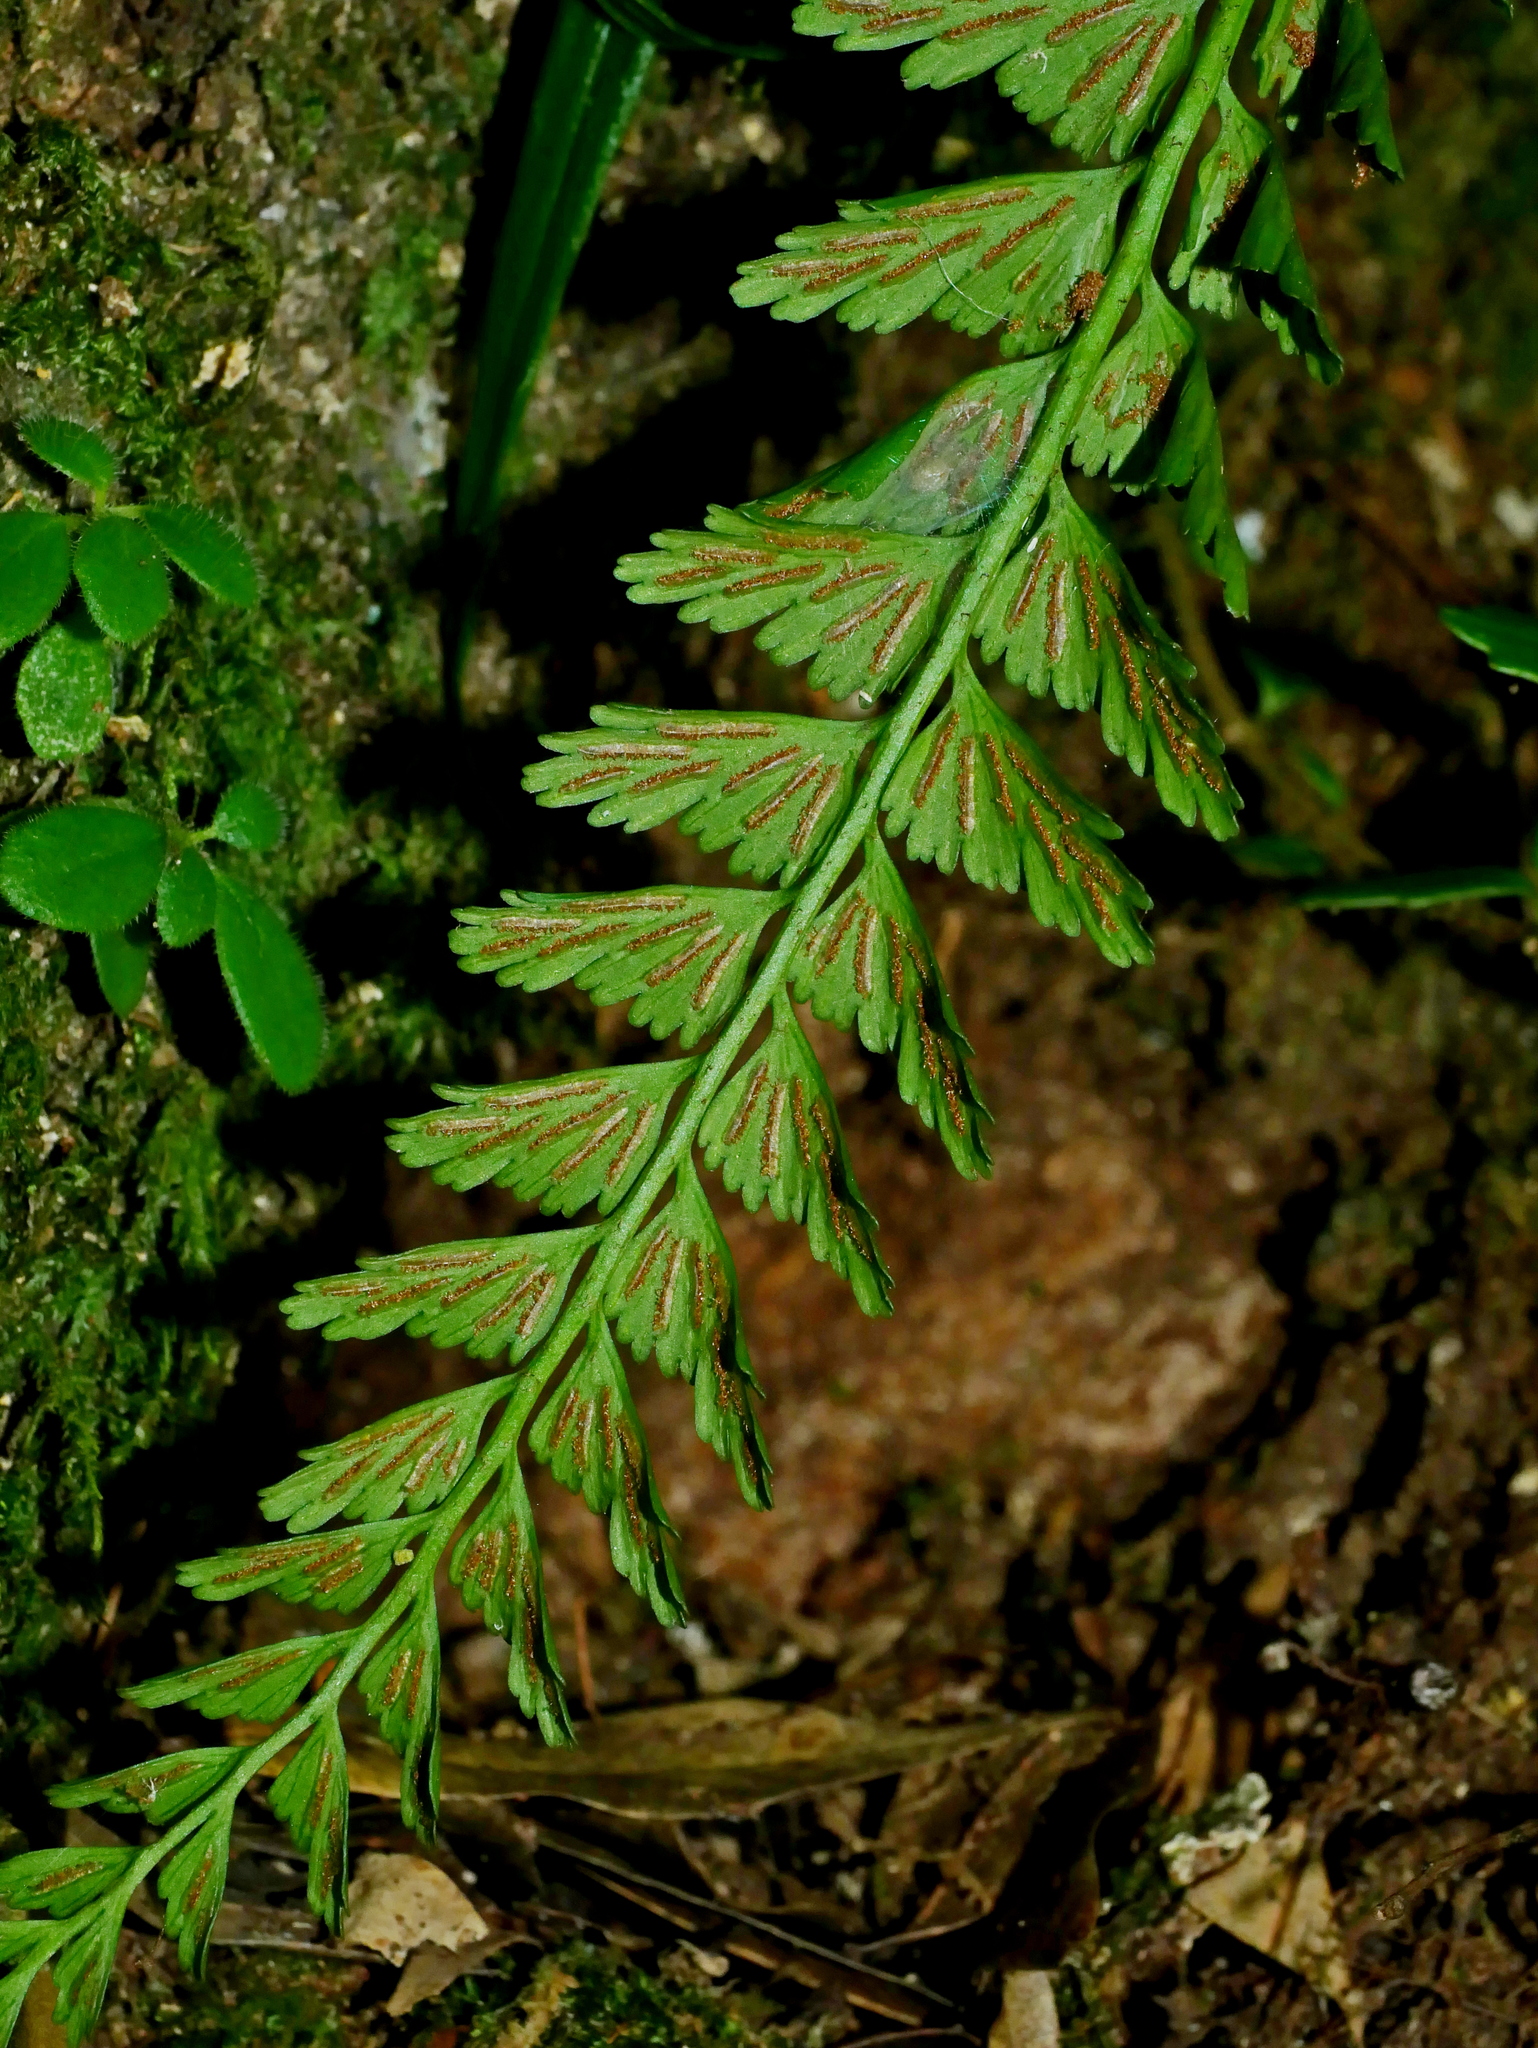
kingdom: Plantae
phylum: Tracheophyta
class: Polypodiopsida
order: Polypodiales
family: Aspleniaceae
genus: Asplenium
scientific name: Asplenium yoshinagae
